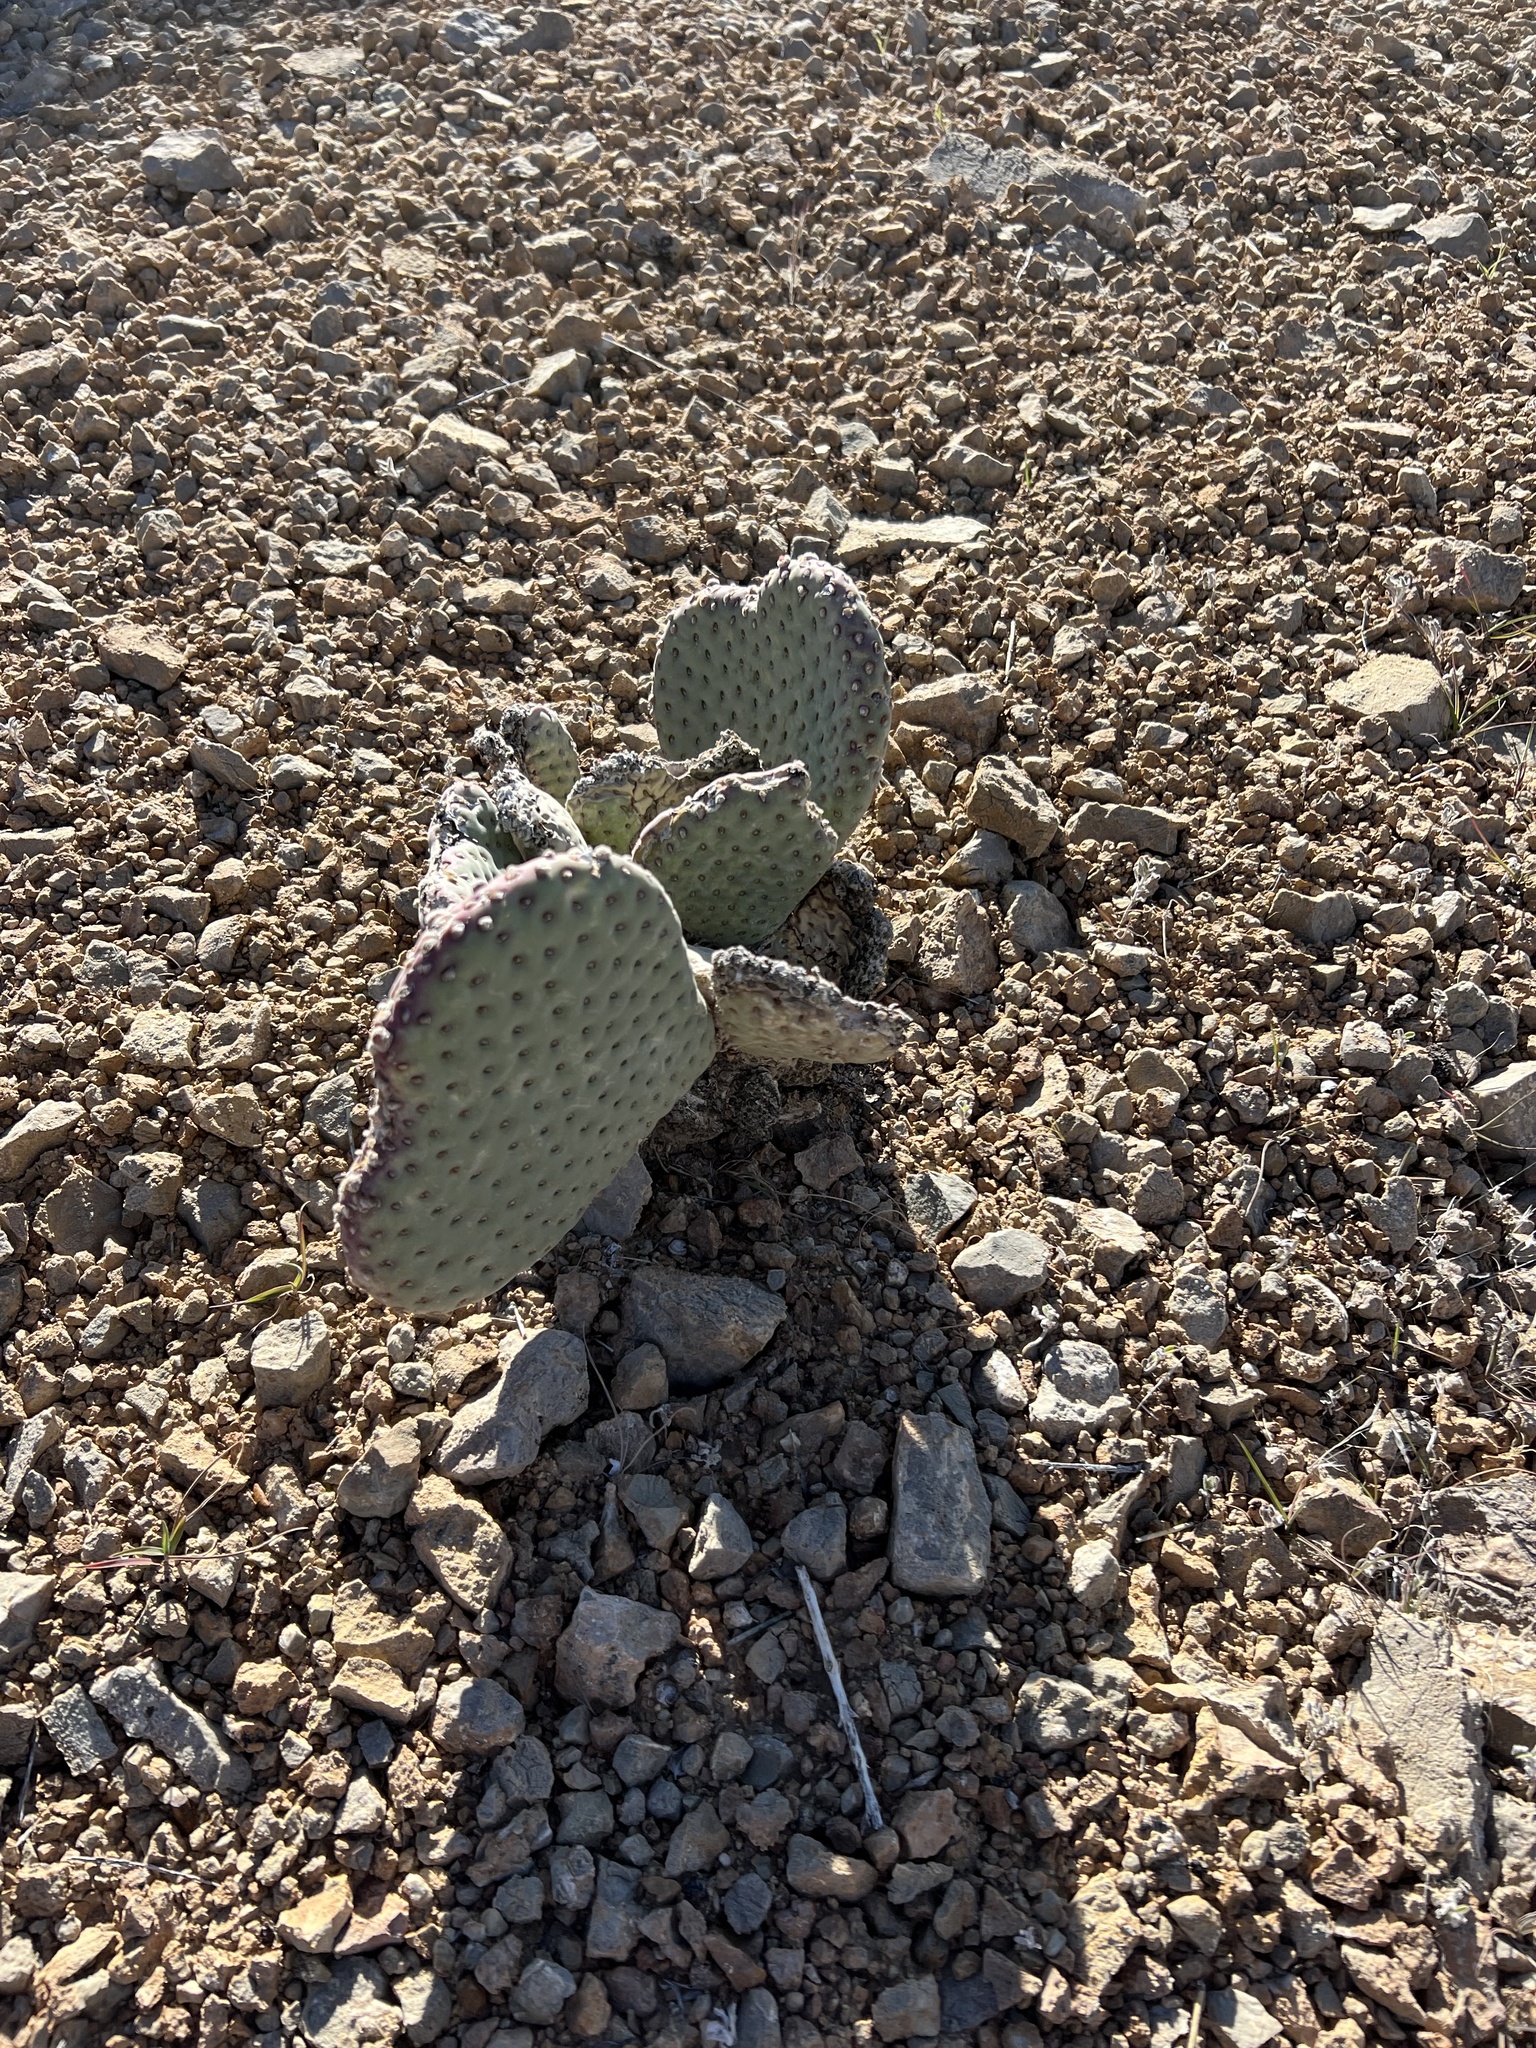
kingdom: Plantae
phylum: Tracheophyta
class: Magnoliopsida
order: Caryophyllales
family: Cactaceae
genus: Opuntia
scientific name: Opuntia basilaris
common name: Beavertail prickly-pear
